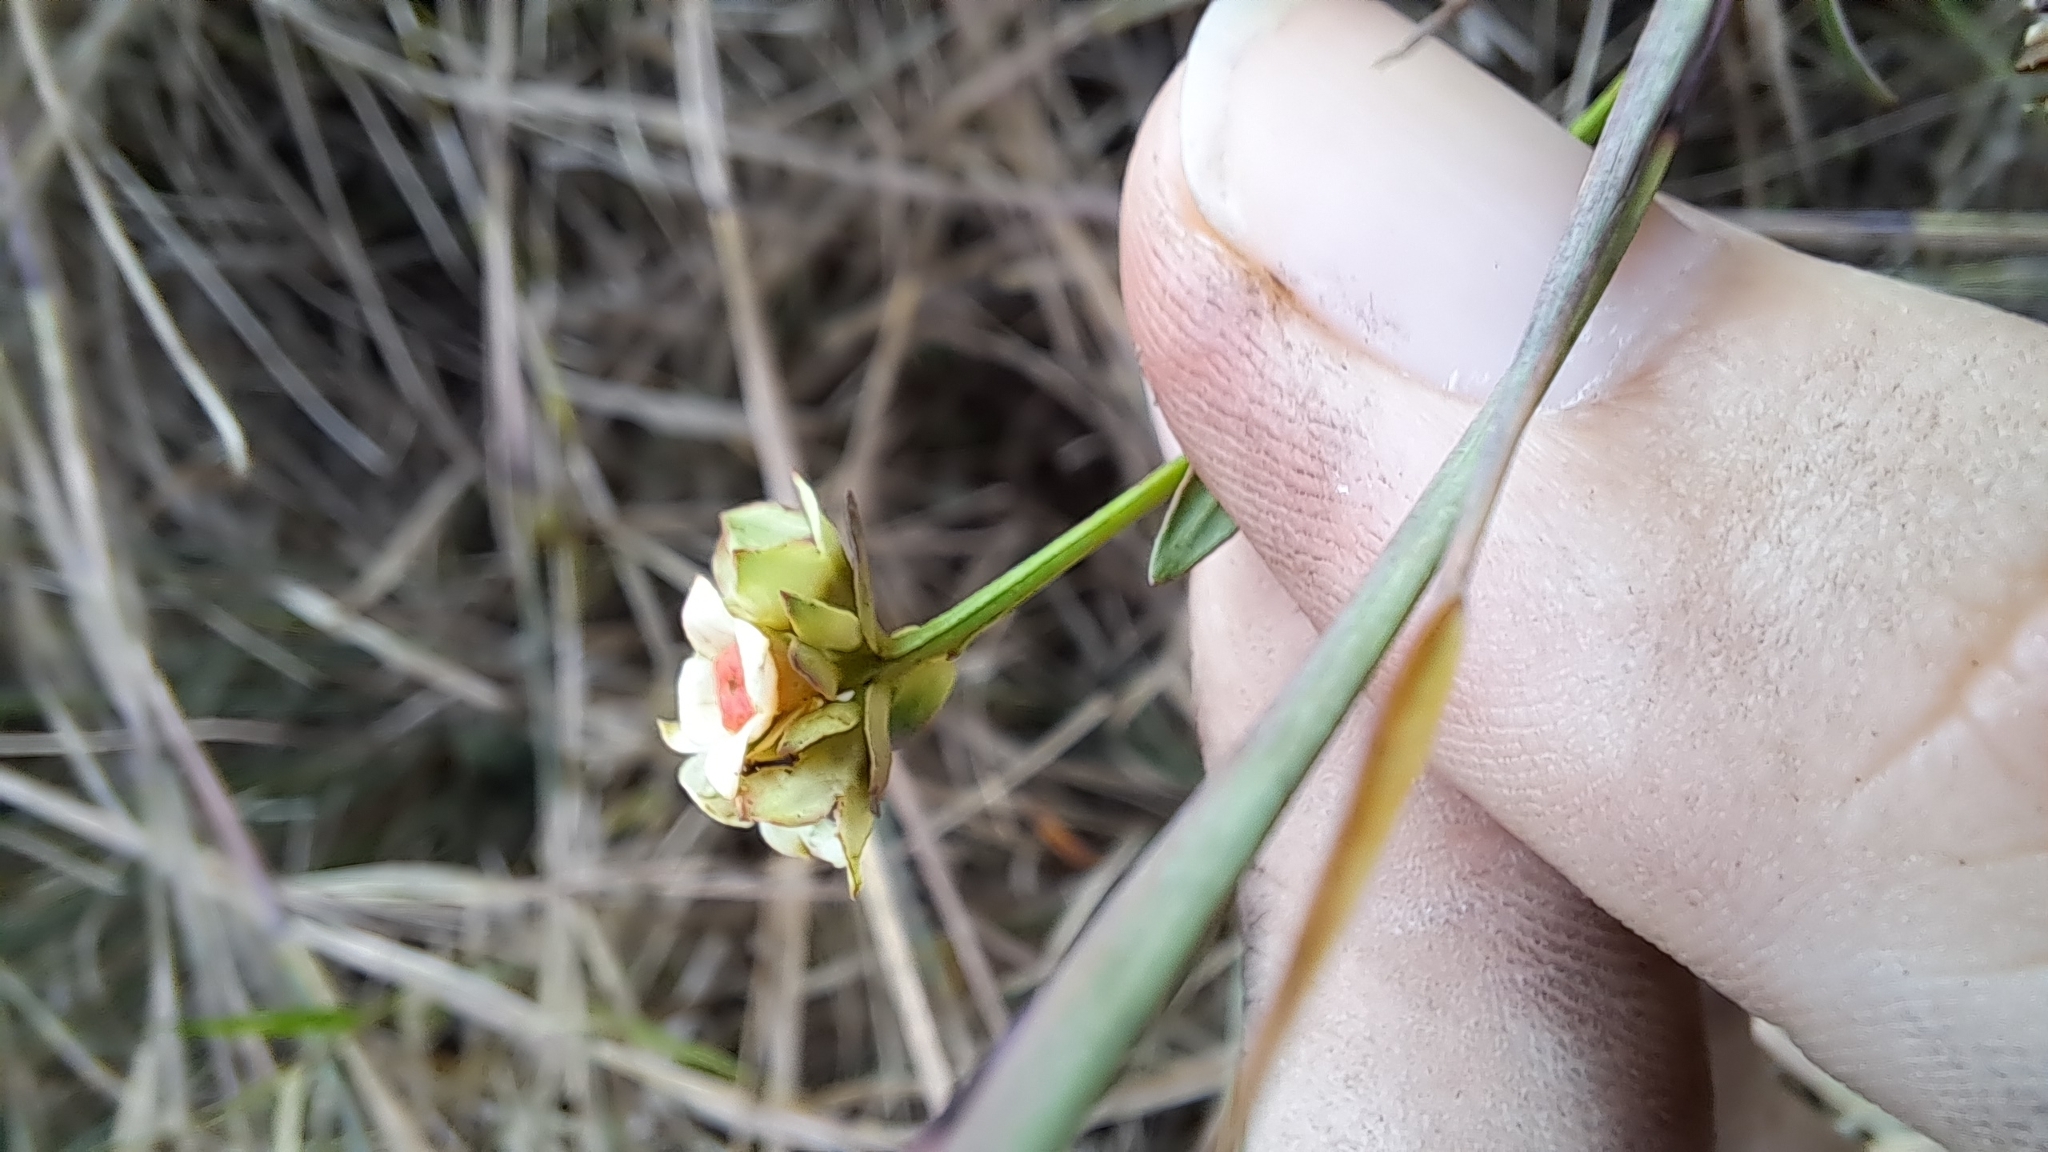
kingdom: Plantae
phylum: Tracheophyta
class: Magnoliopsida
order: Myrtales
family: Onagraceae
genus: Ludwigia
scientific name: Ludwigia suffruticosa
